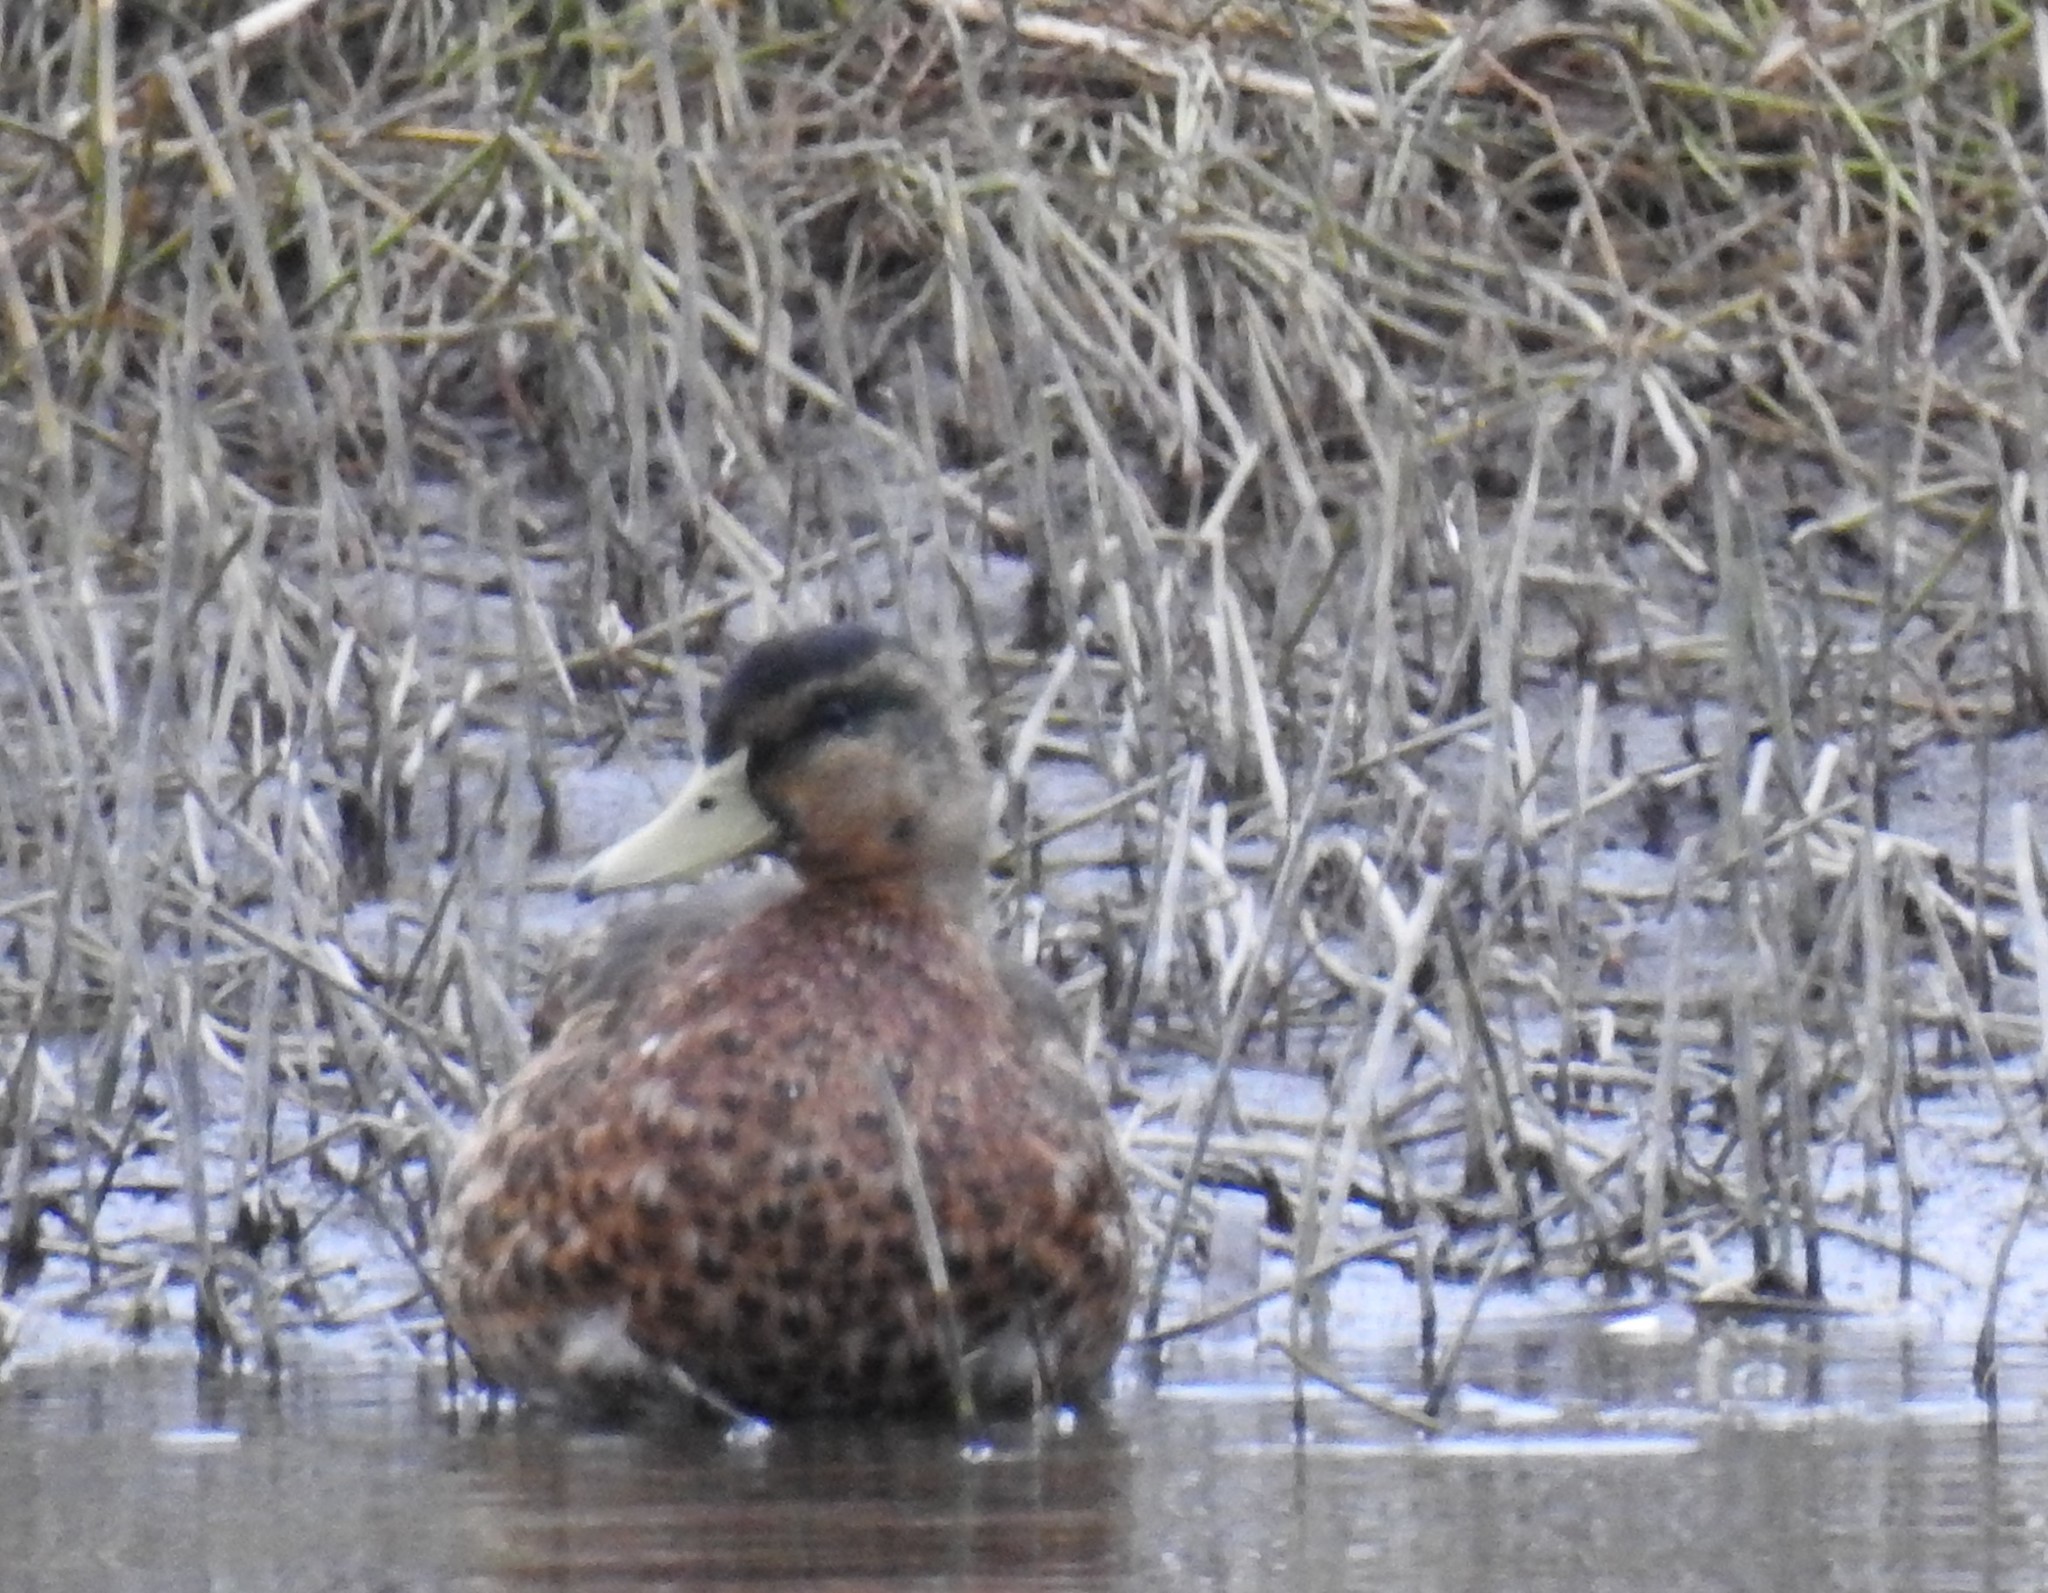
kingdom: Animalia
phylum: Chordata
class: Aves
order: Anseriformes
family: Anatidae
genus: Anas
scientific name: Anas platyrhynchos
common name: Mallard
